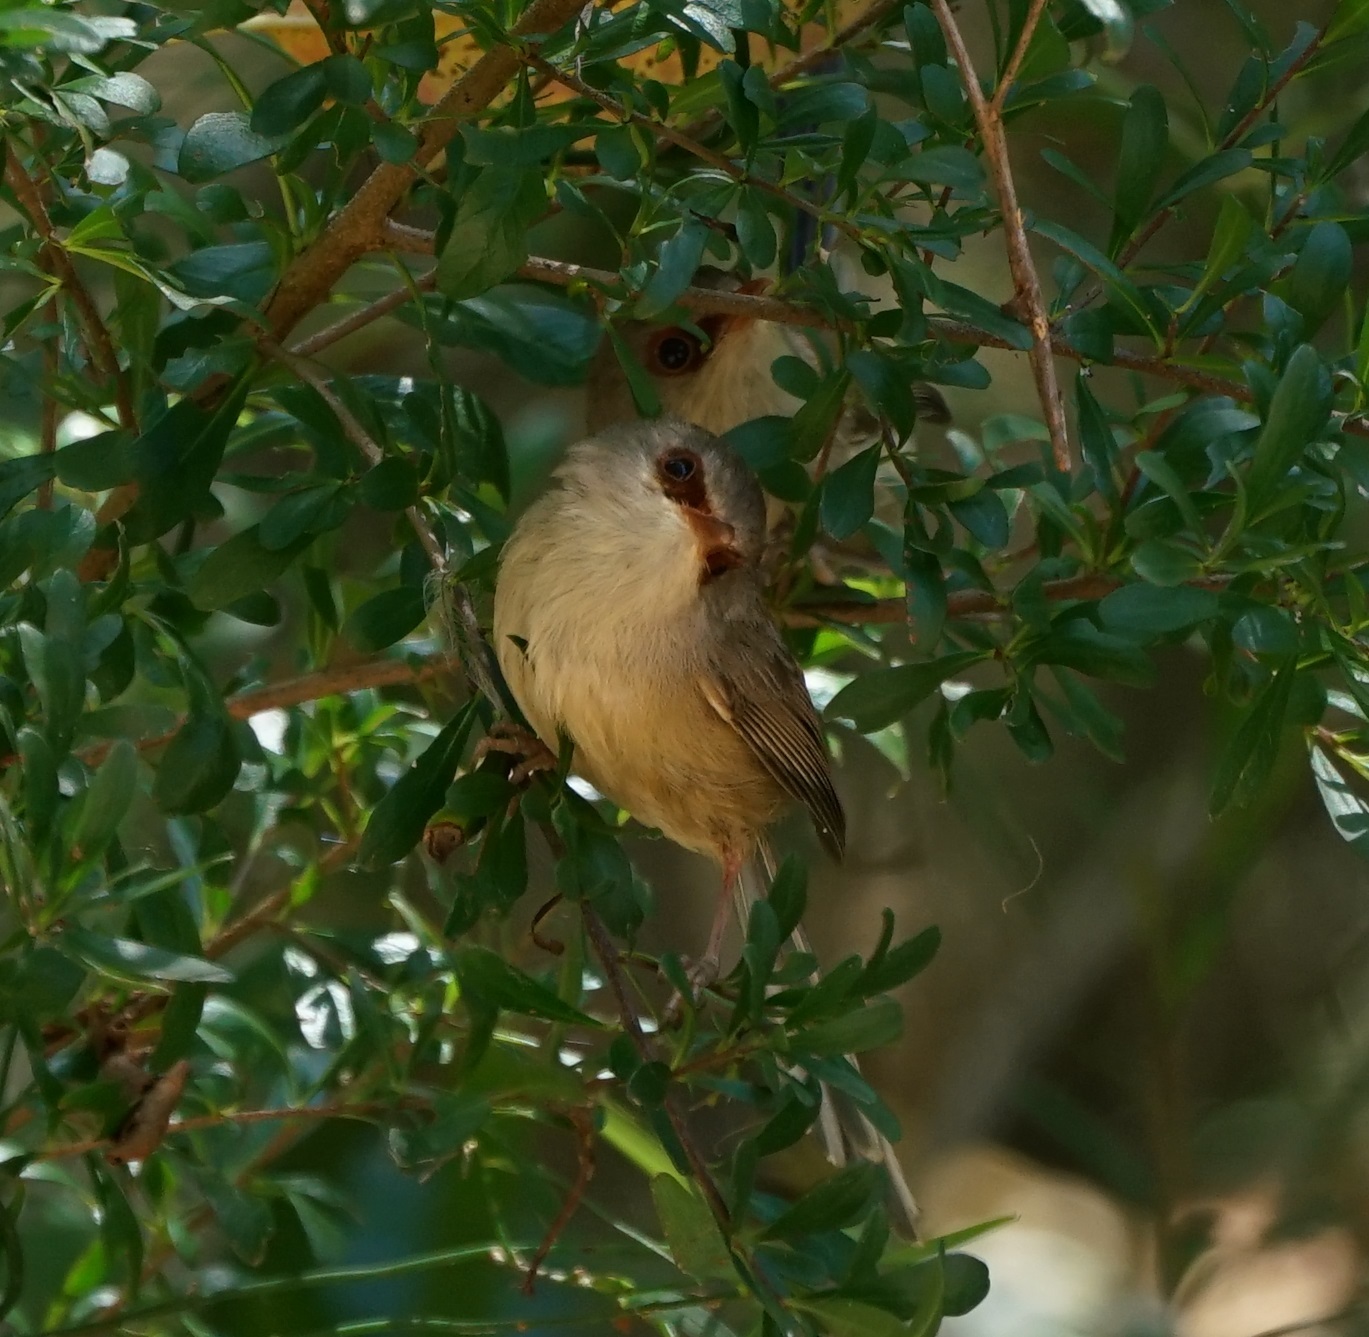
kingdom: Animalia
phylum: Chordata
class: Aves
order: Passeriformes
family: Maluridae
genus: Malurus
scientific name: Malurus lamberti
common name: Variegated fairywren
